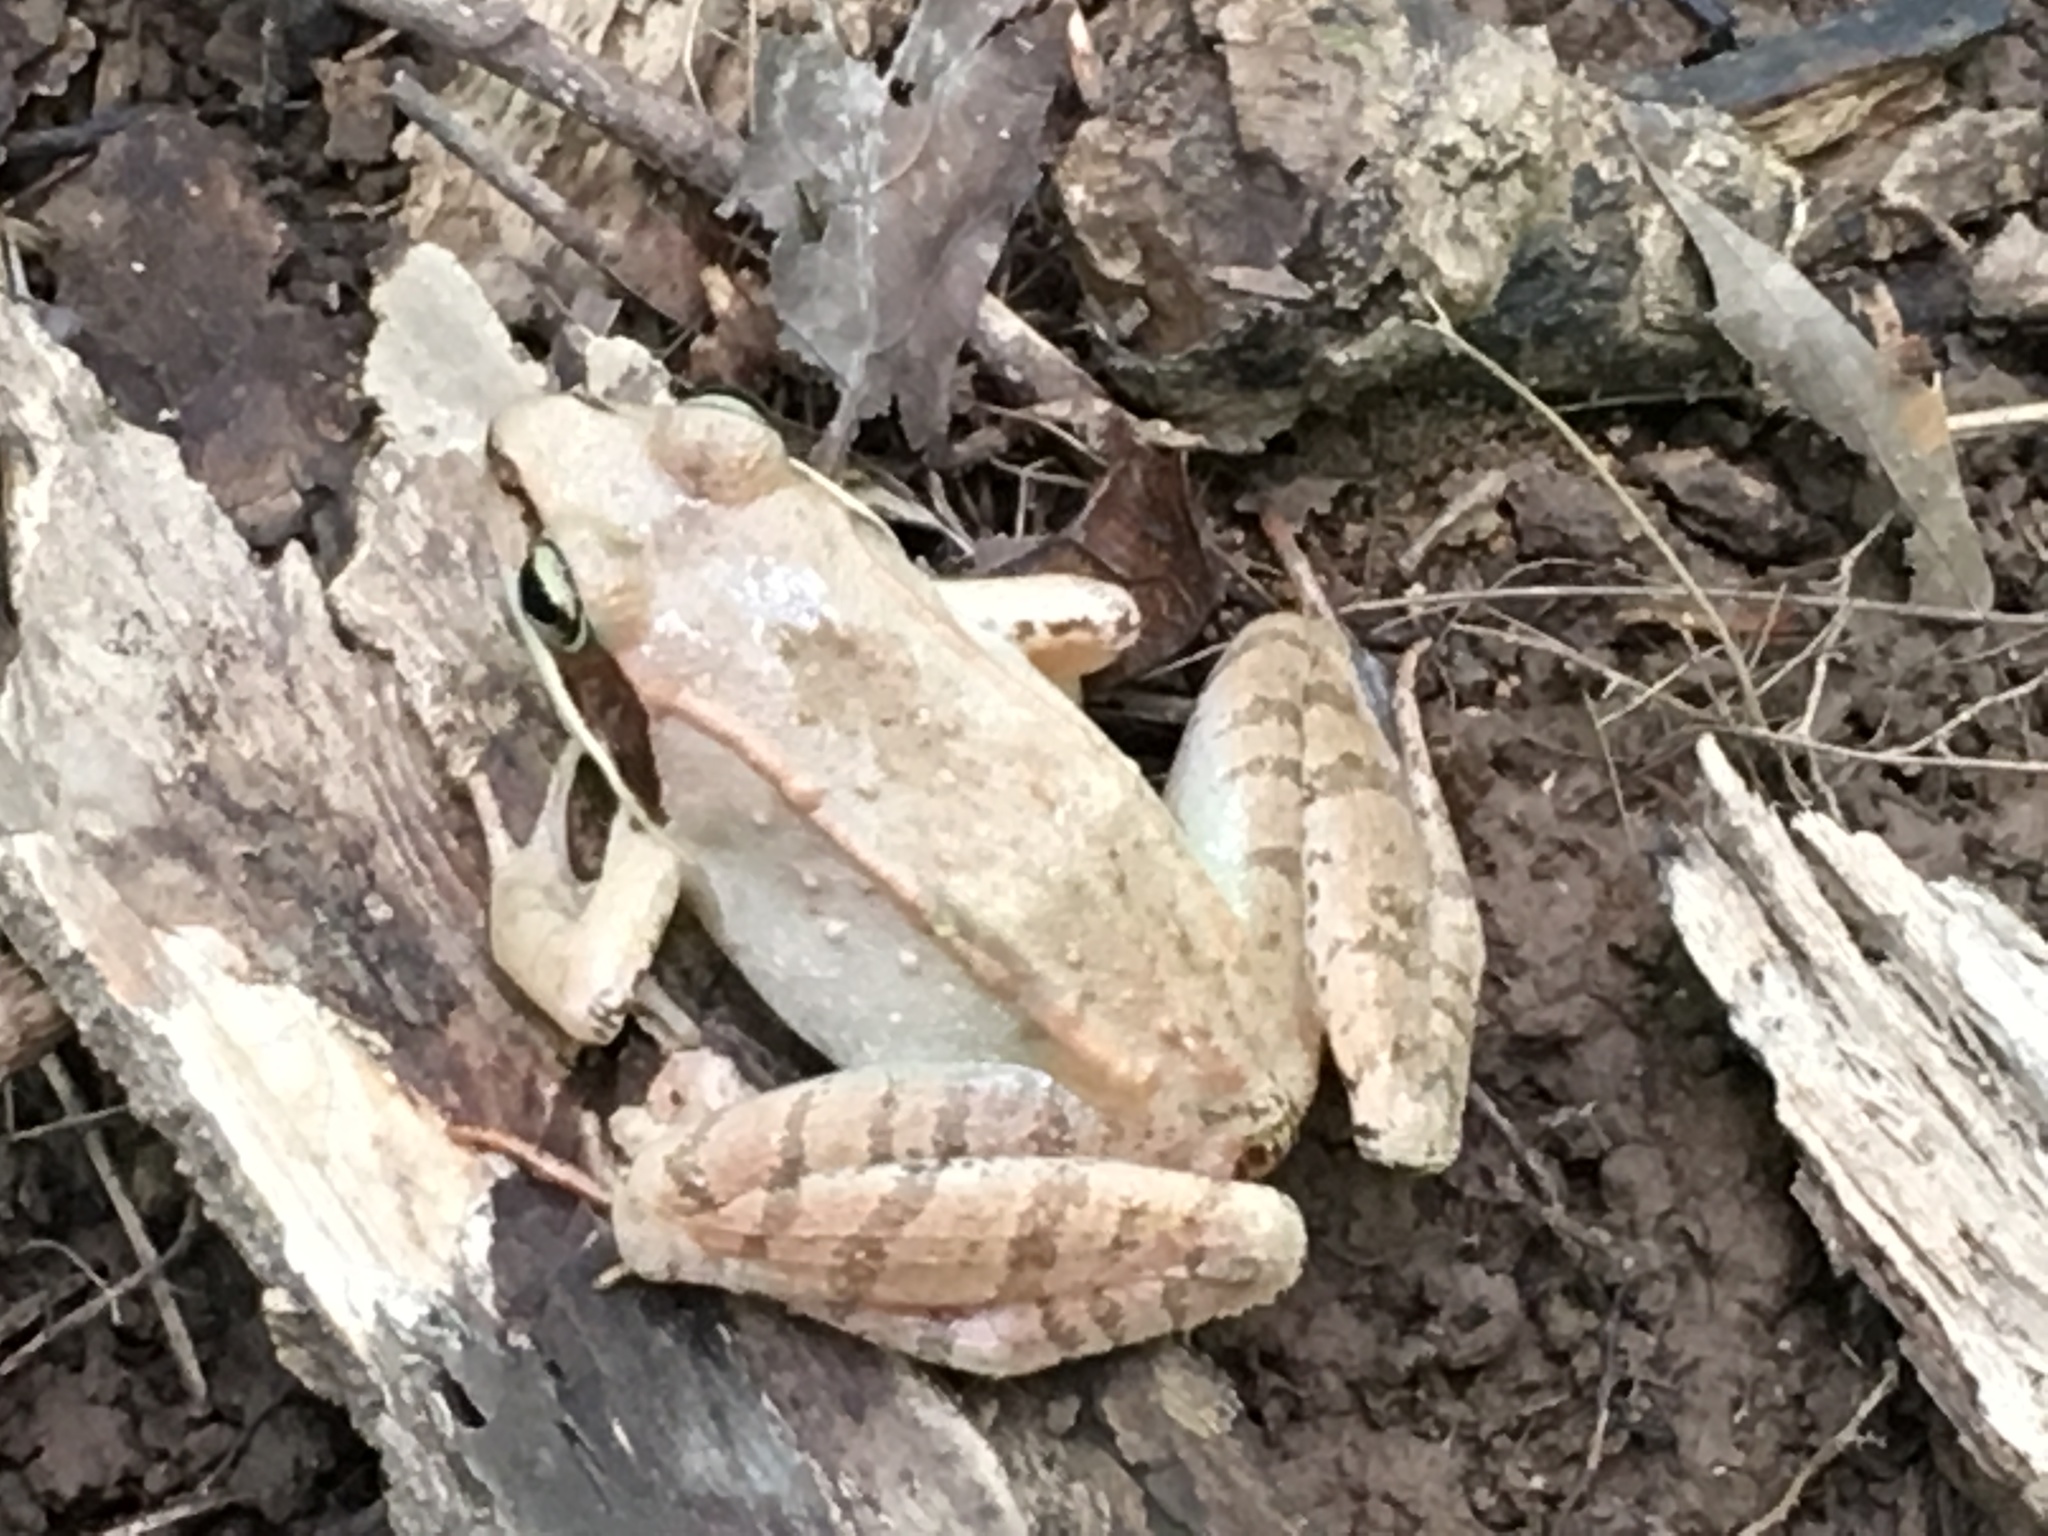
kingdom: Animalia
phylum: Chordata
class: Amphibia
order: Anura
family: Ranidae
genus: Lithobates
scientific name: Lithobates sylvaticus
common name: Wood frog
